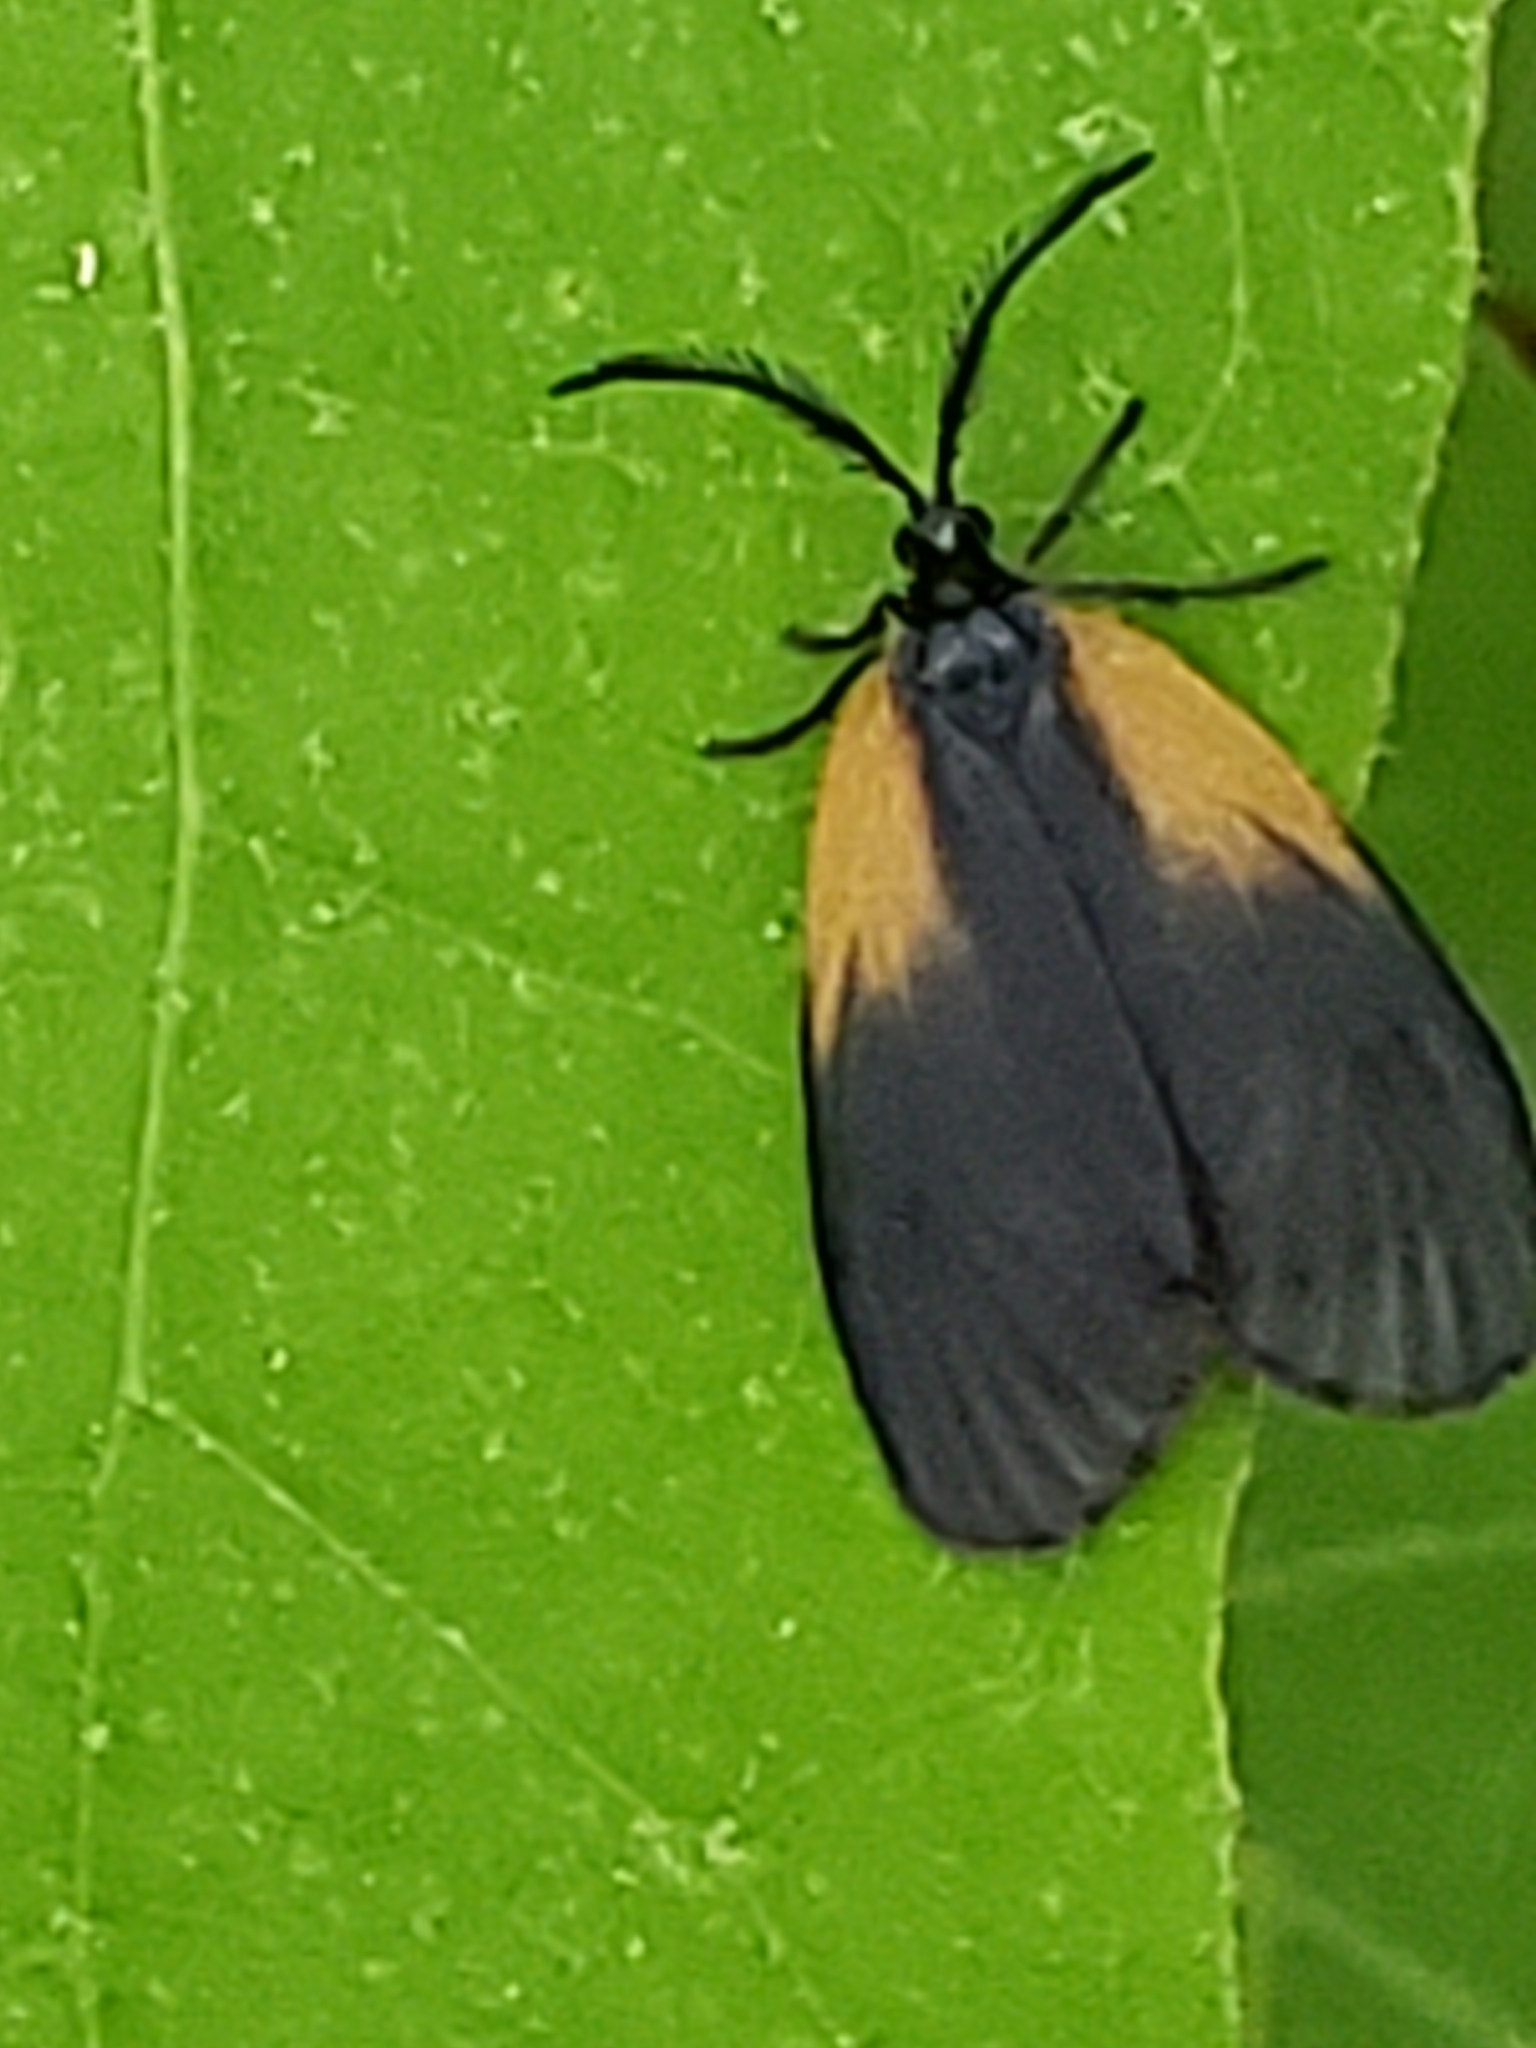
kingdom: Animalia
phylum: Arthropoda
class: Insecta
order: Lepidoptera
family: Zygaenidae
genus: Malthaca
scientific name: Malthaca dimidiata
